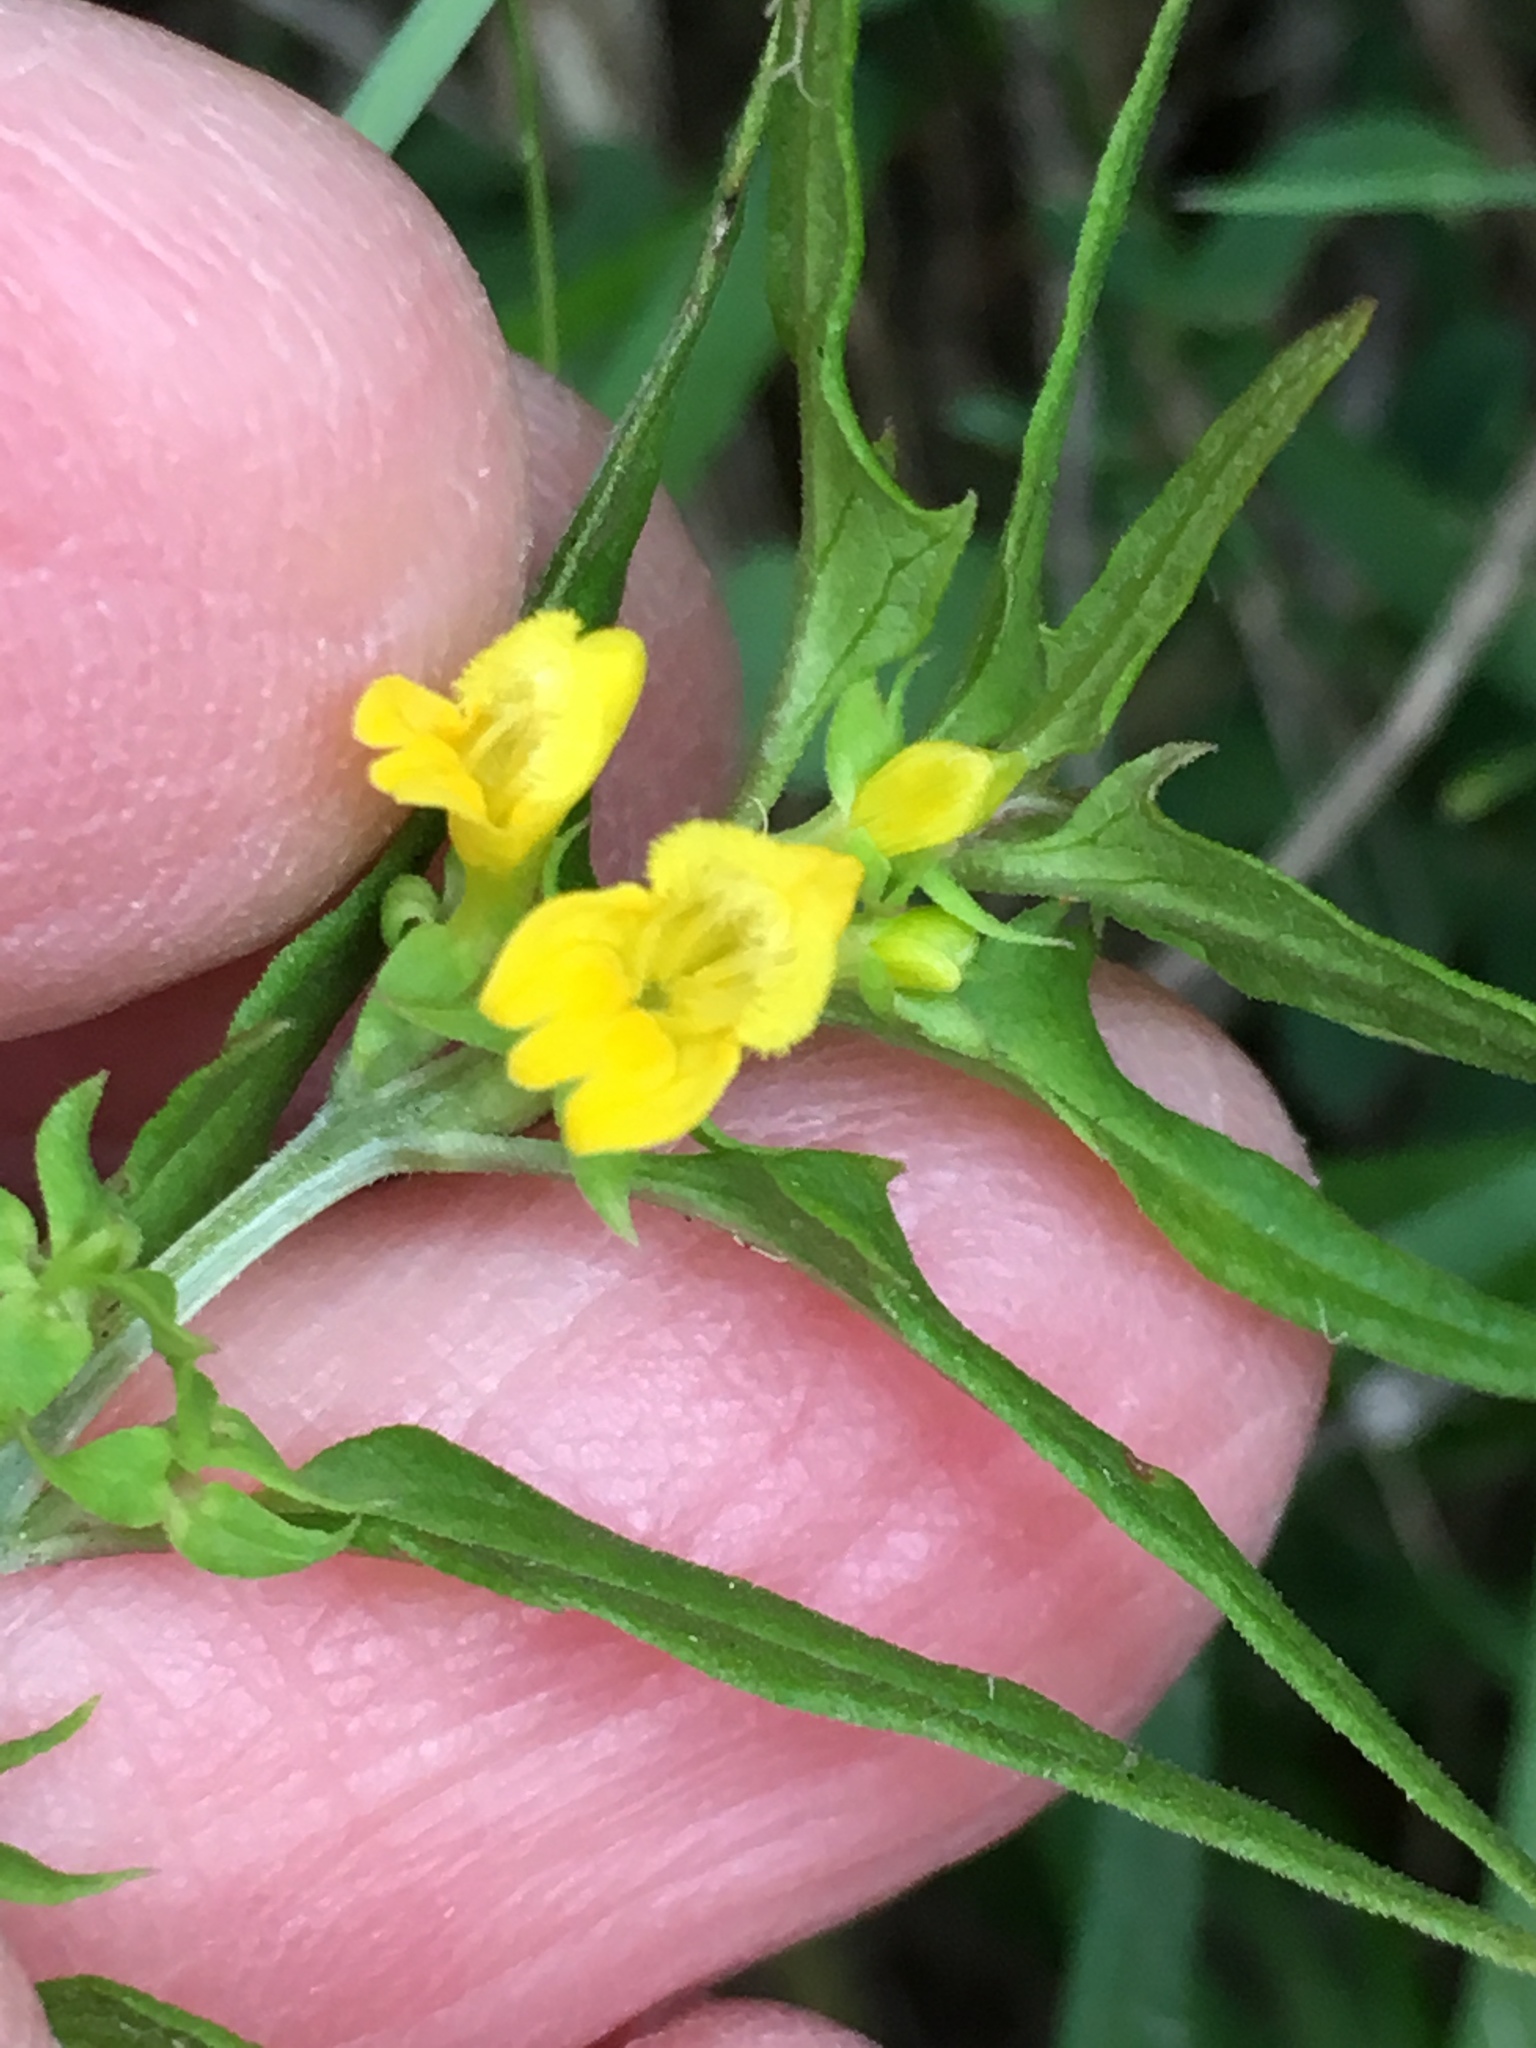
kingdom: Plantae
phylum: Tracheophyta
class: Magnoliopsida
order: Lamiales
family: Orobanchaceae
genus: Melampyrum
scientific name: Melampyrum sylvaticum
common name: Small cow-wheat
